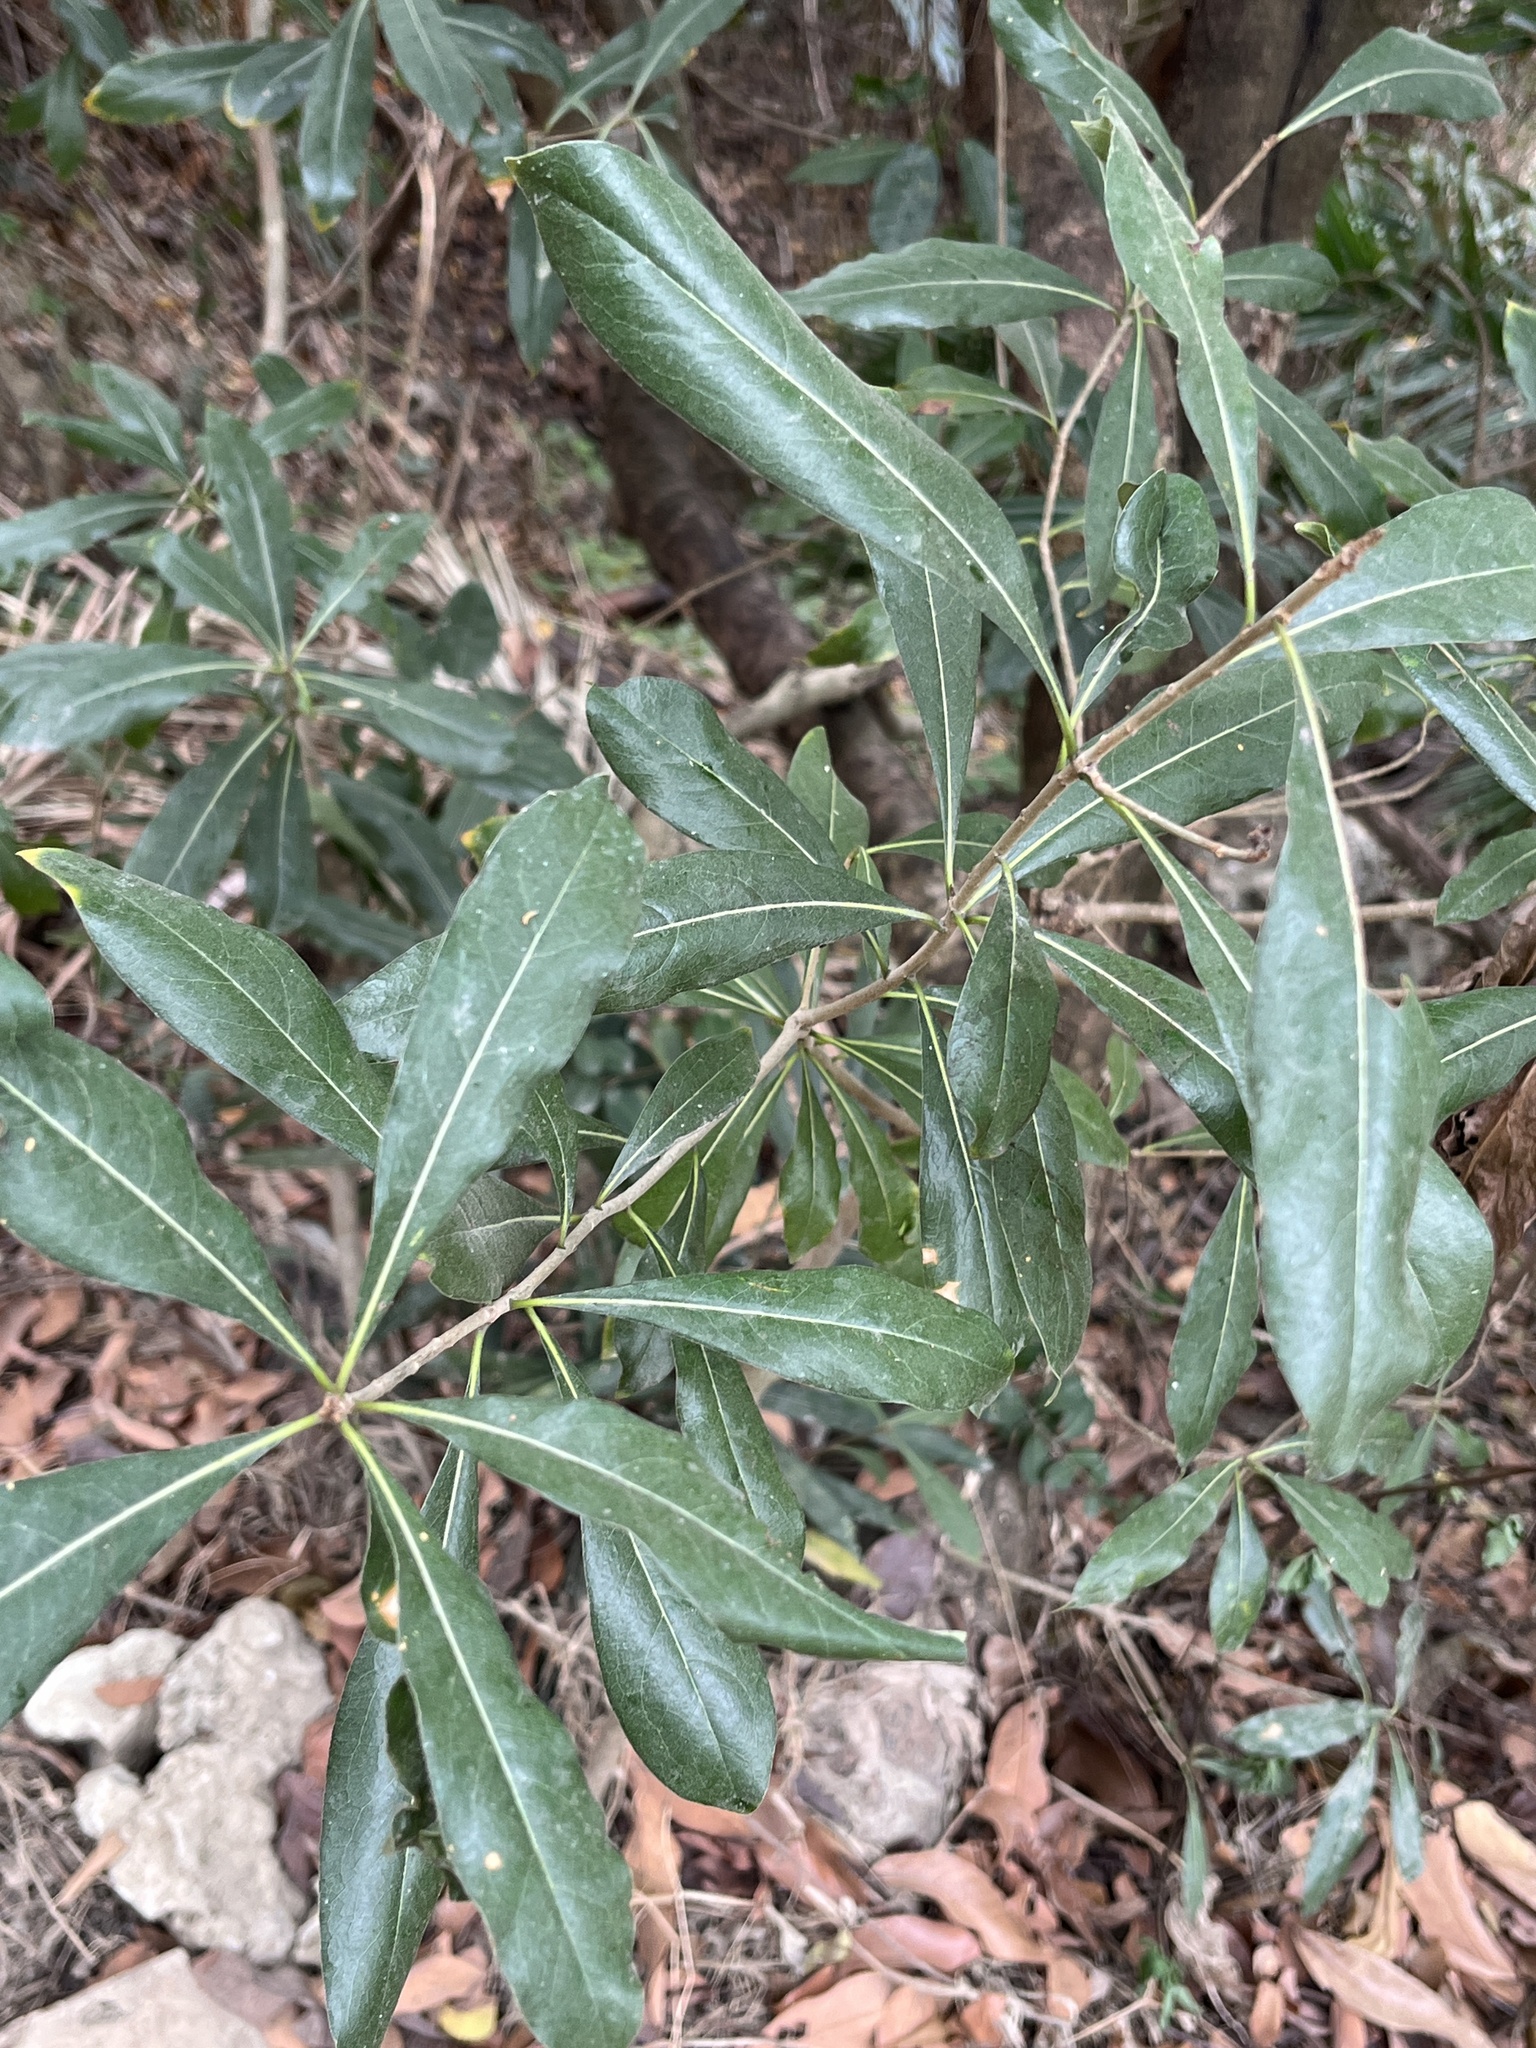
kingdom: Plantae
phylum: Tracheophyta
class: Magnoliopsida
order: Apiales
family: Pittosporaceae
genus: Pittosporum
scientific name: Pittosporum pentandrum
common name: Taiwanese cheesewood
